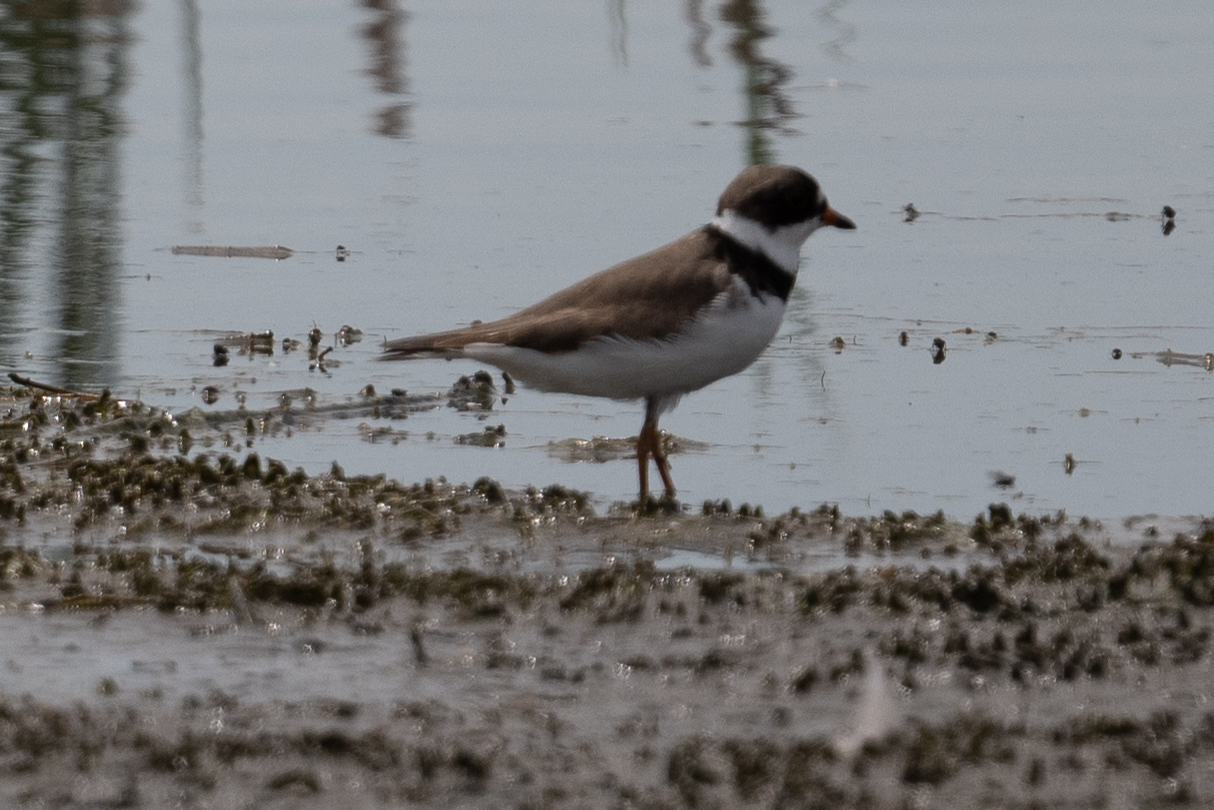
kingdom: Animalia
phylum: Chordata
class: Aves
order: Charadriiformes
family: Charadriidae
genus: Charadrius
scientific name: Charadrius semipalmatus
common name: Semipalmated plover
